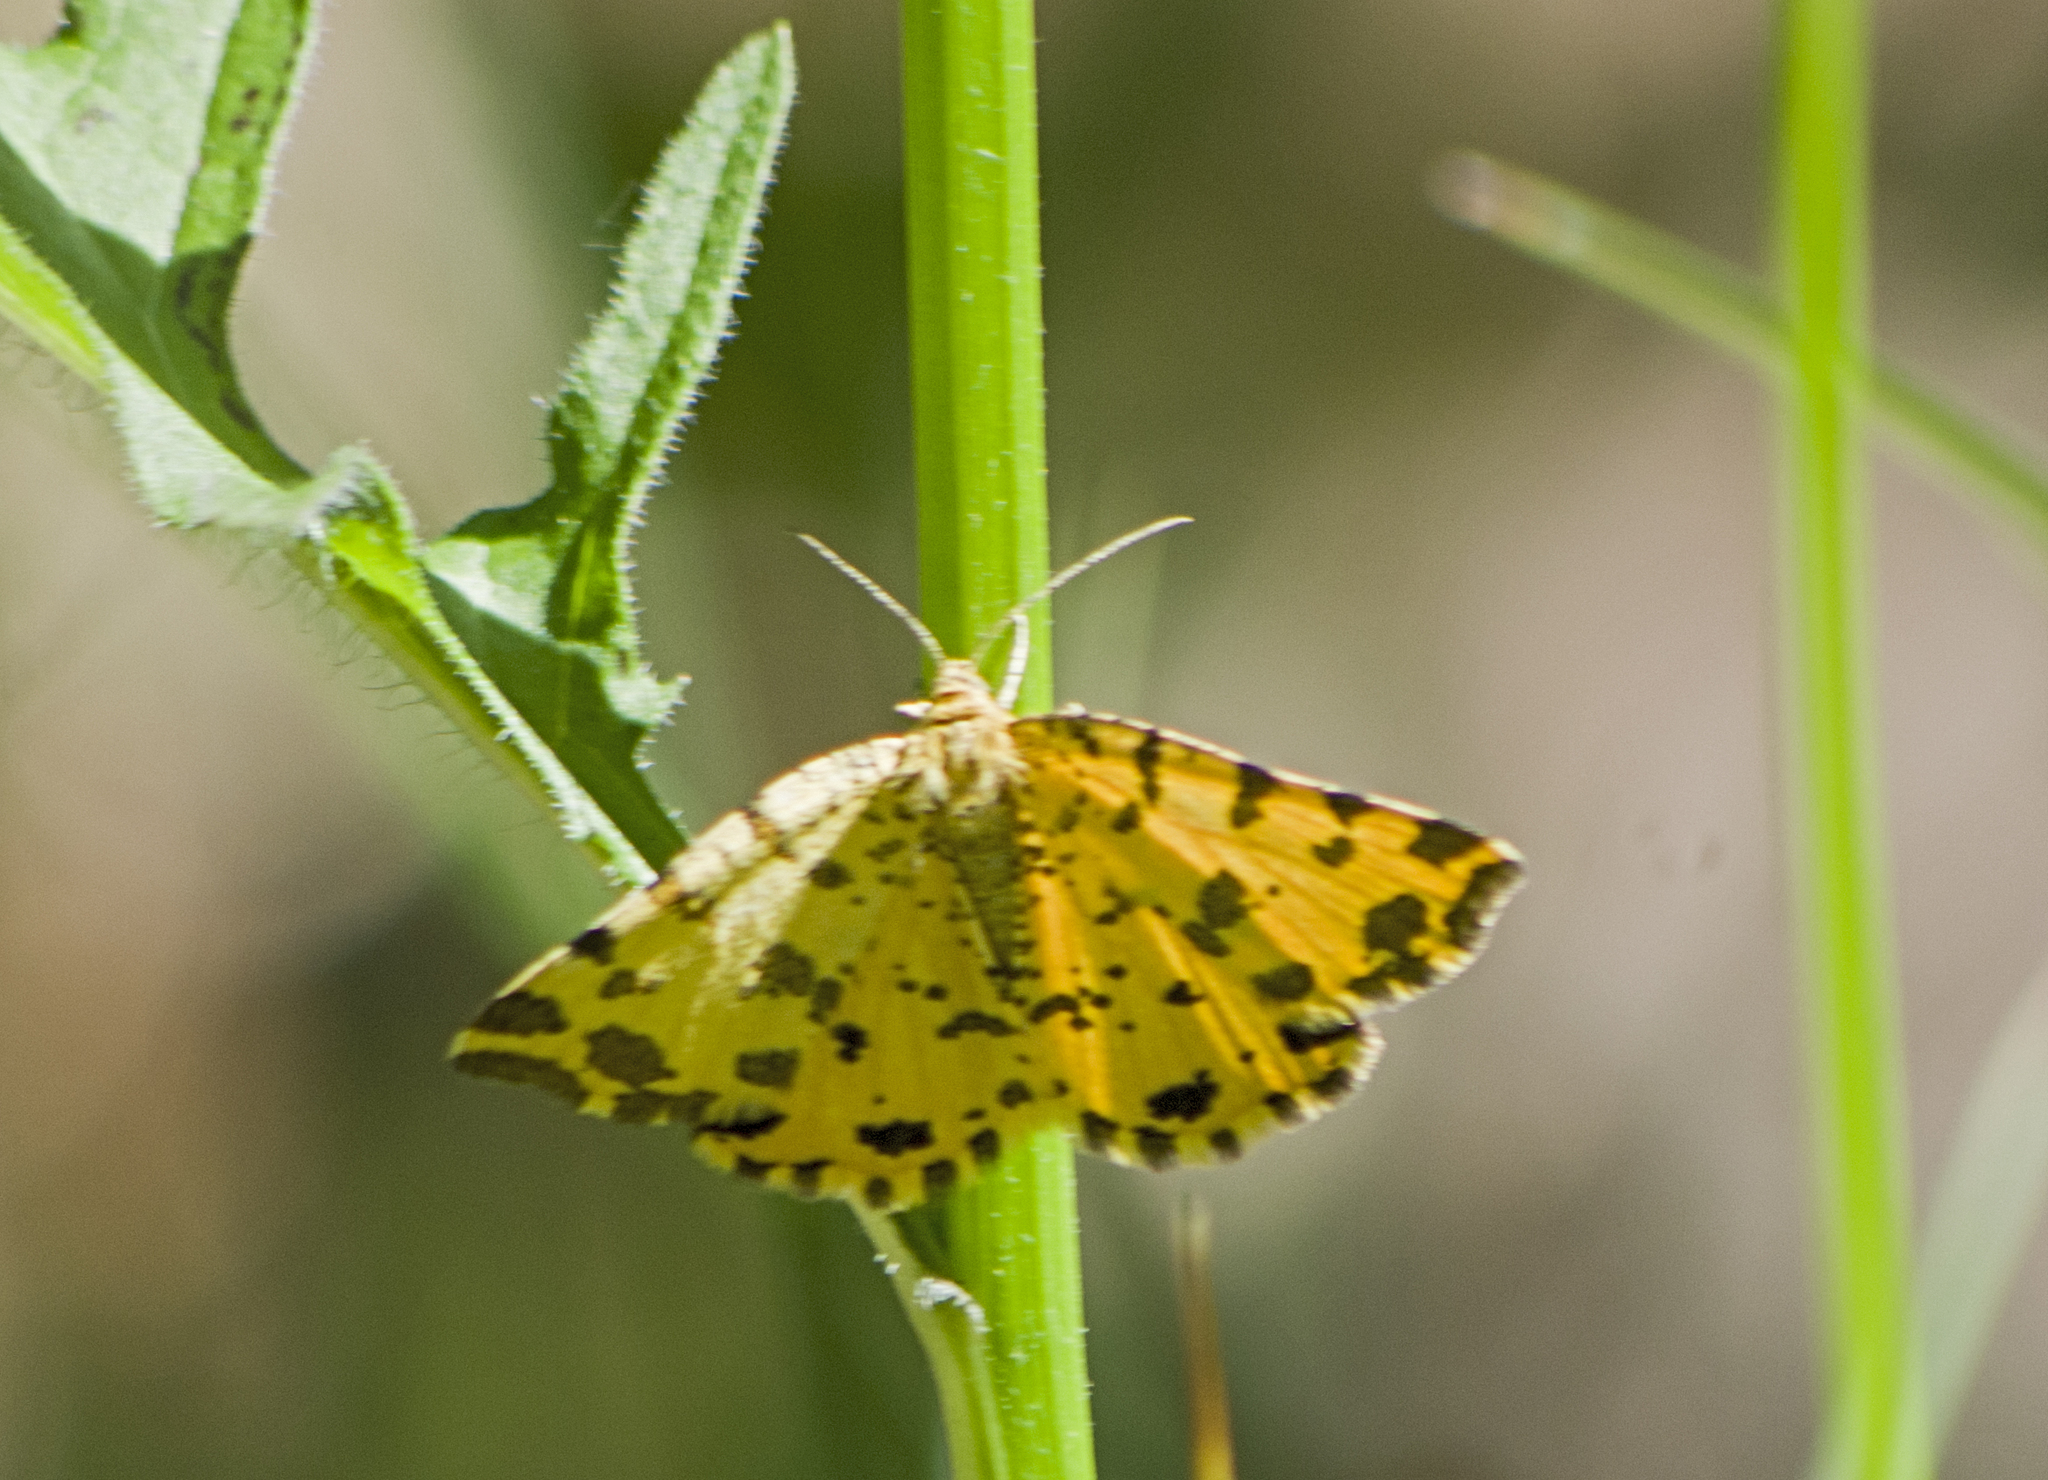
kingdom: Animalia
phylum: Arthropoda
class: Insecta
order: Lepidoptera
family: Geometridae
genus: Pseudopanthera
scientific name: Pseudopanthera macularia
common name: Speckled yellow
